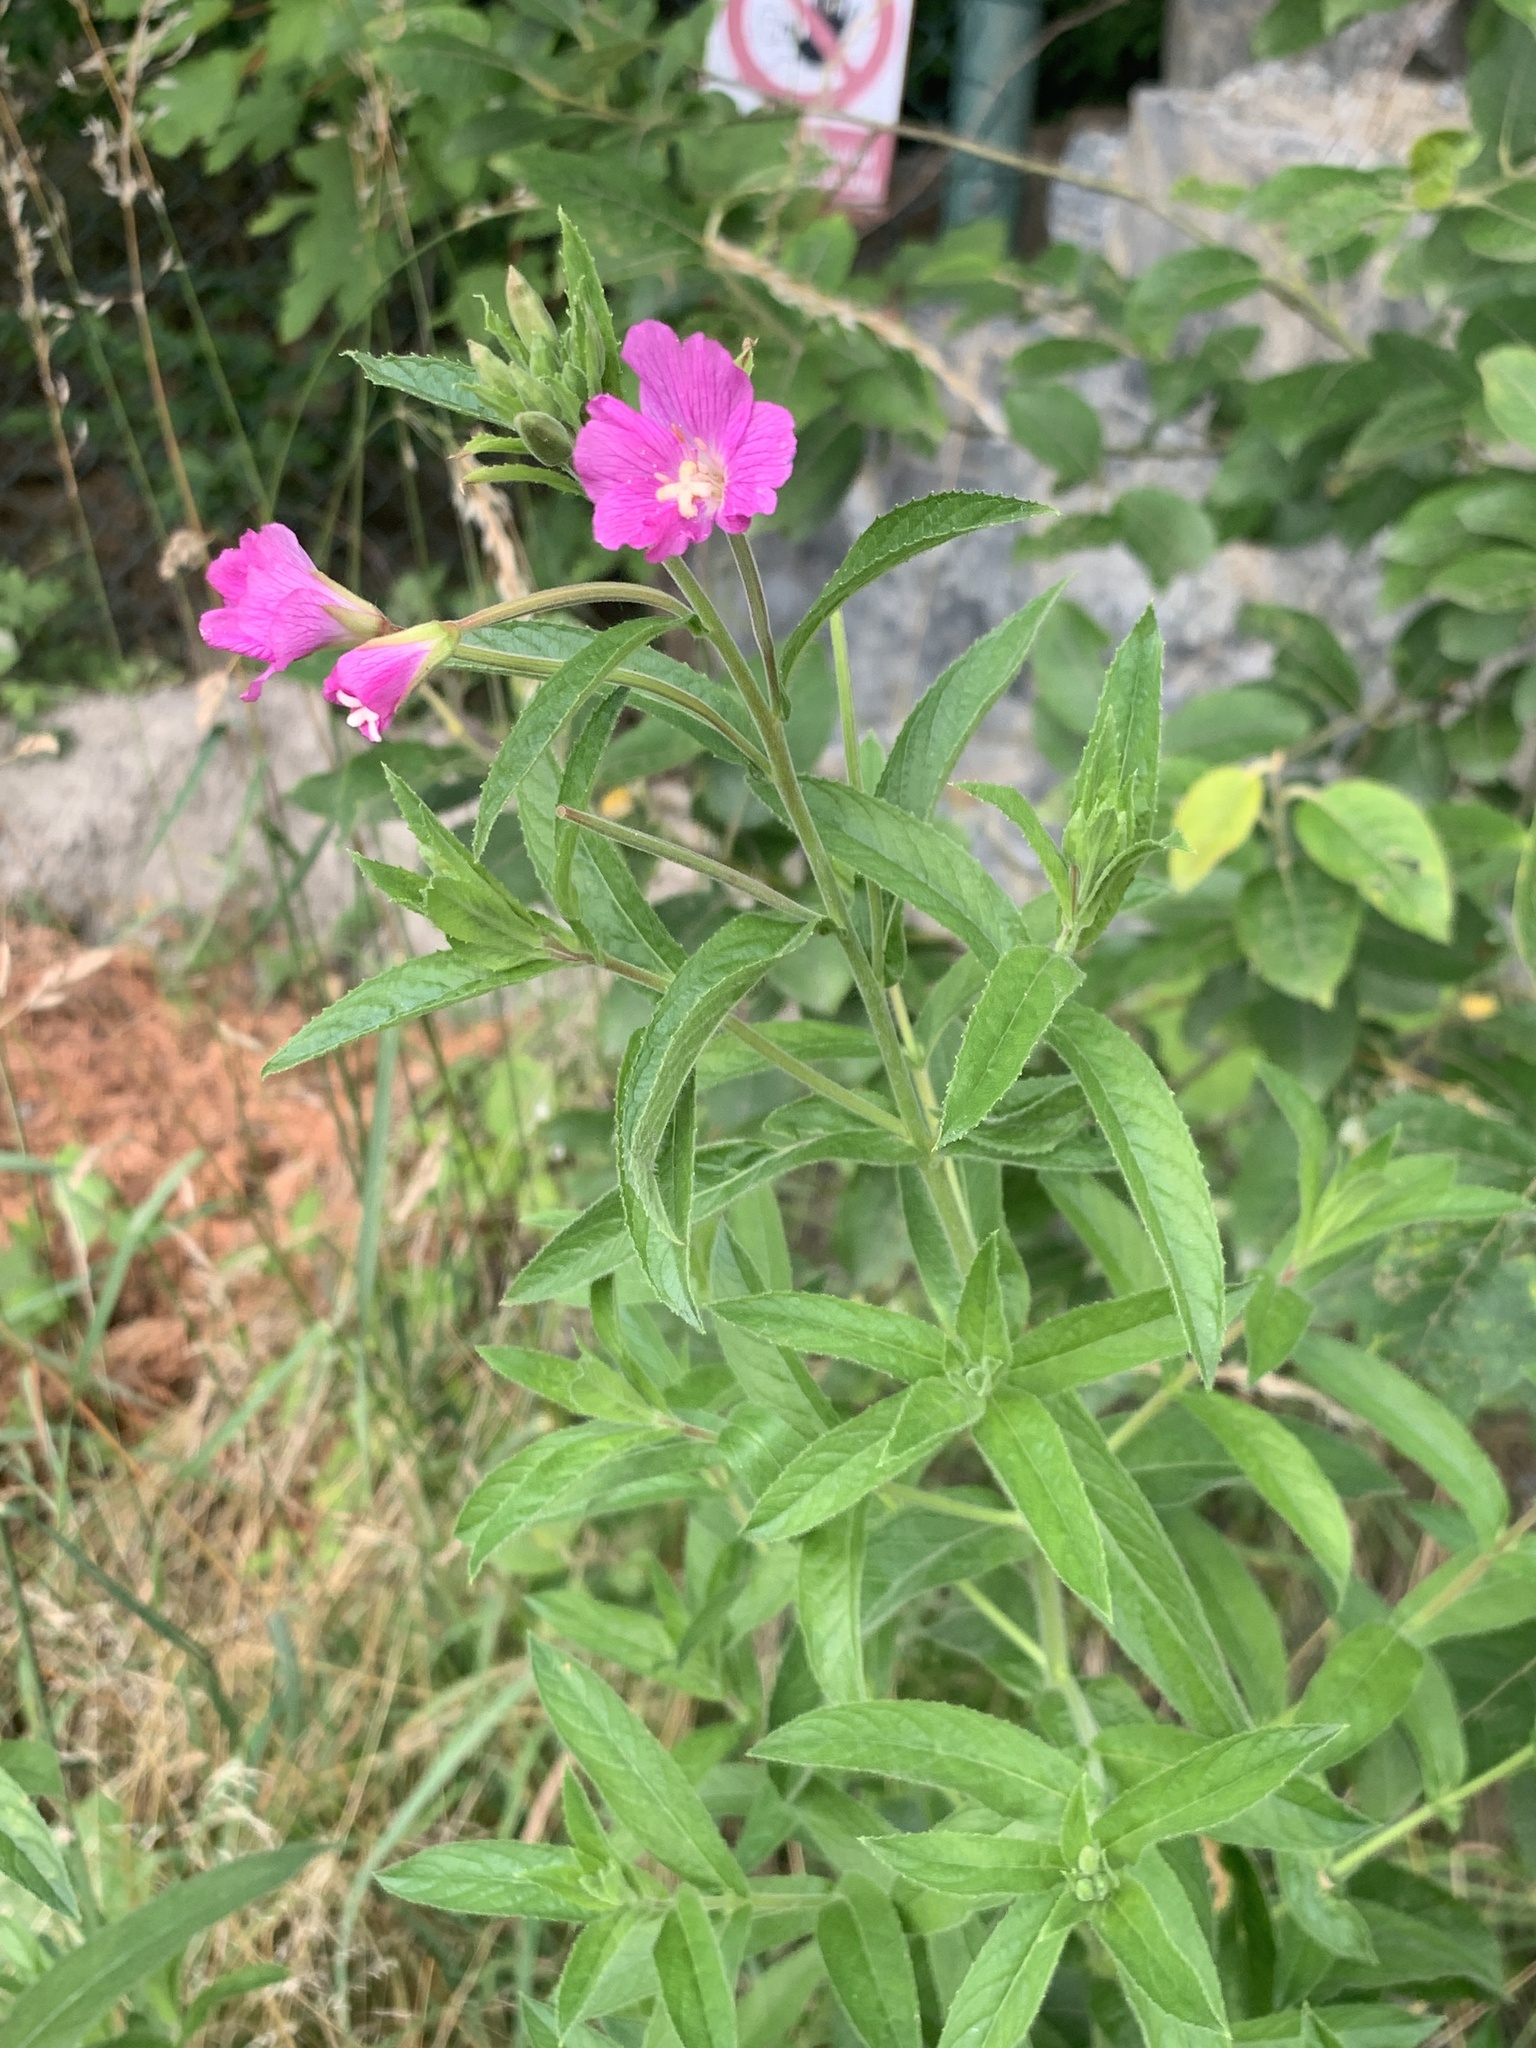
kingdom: Plantae
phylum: Tracheophyta
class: Magnoliopsida
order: Myrtales
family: Onagraceae
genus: Epilobium
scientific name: Epilobium hirsutum
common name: Great willowherb
